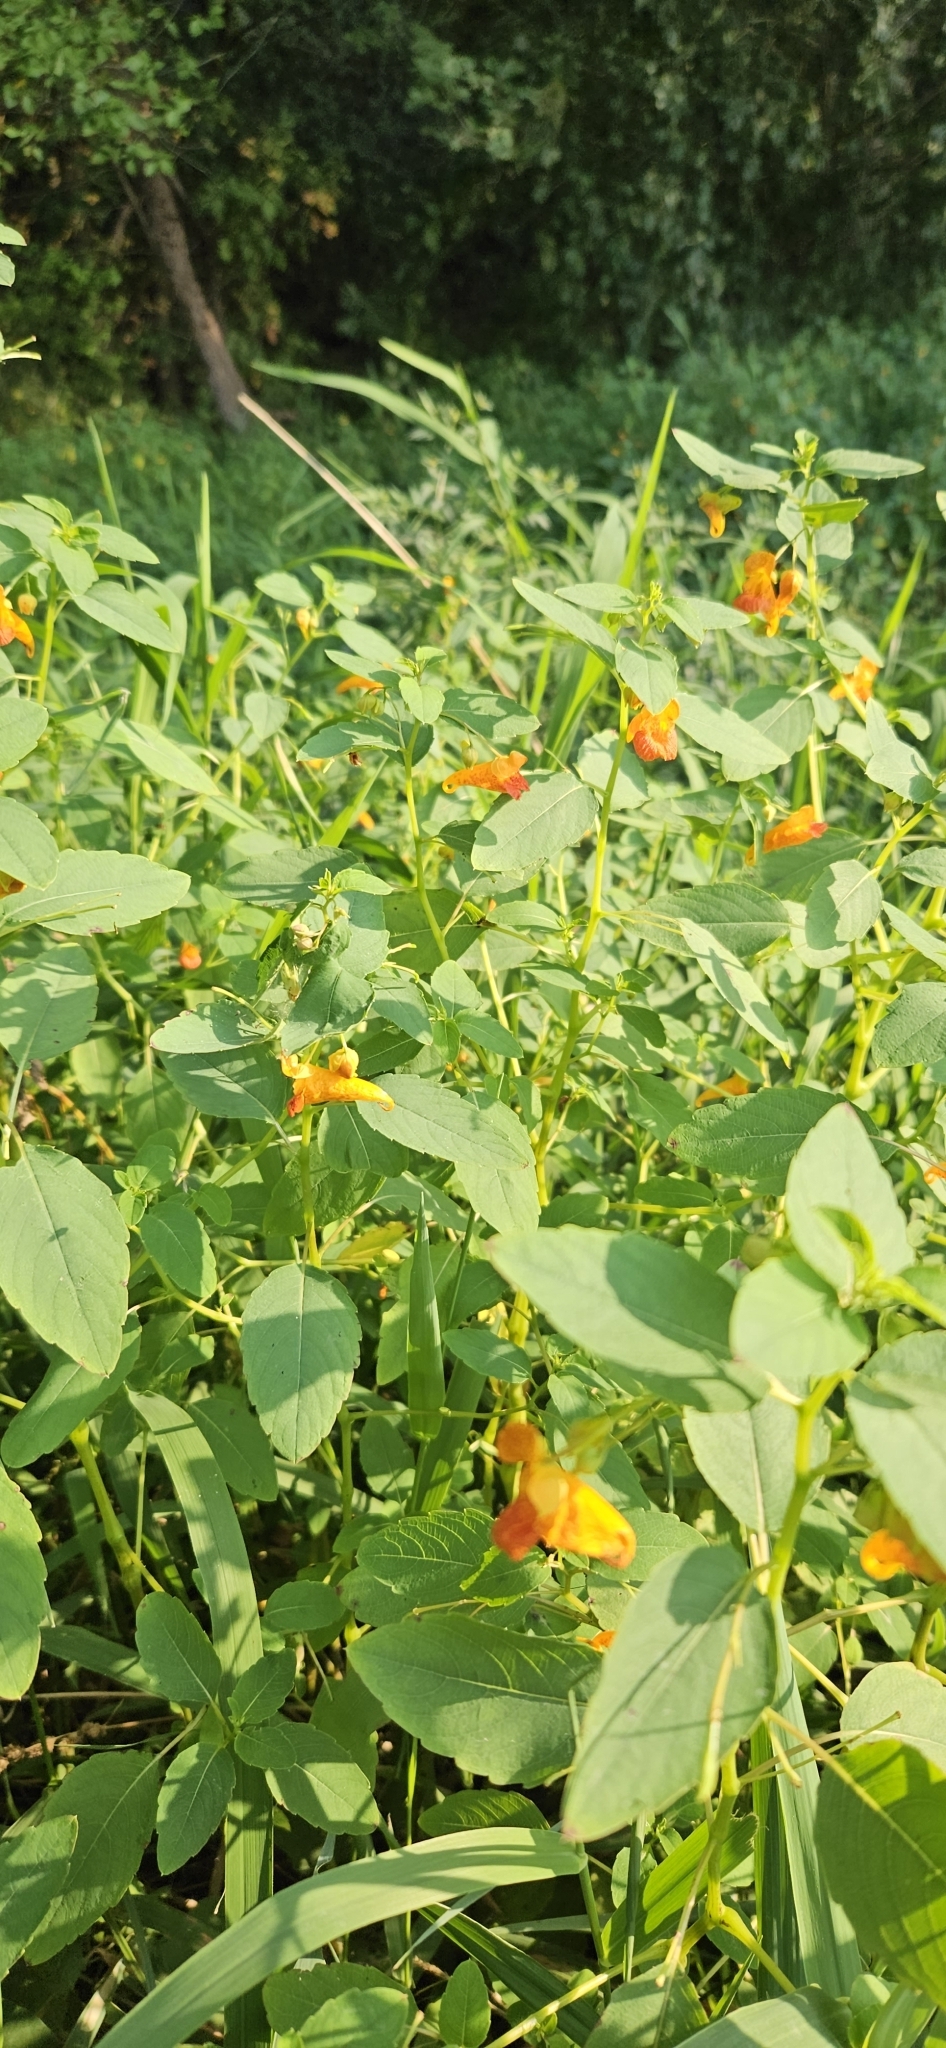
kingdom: Plantae
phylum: Tracheophyta
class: Magnoliopsida
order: Ericales
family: Balsaminaceae
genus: Impatiens
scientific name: Impatiens capensis
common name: Orange balsam
